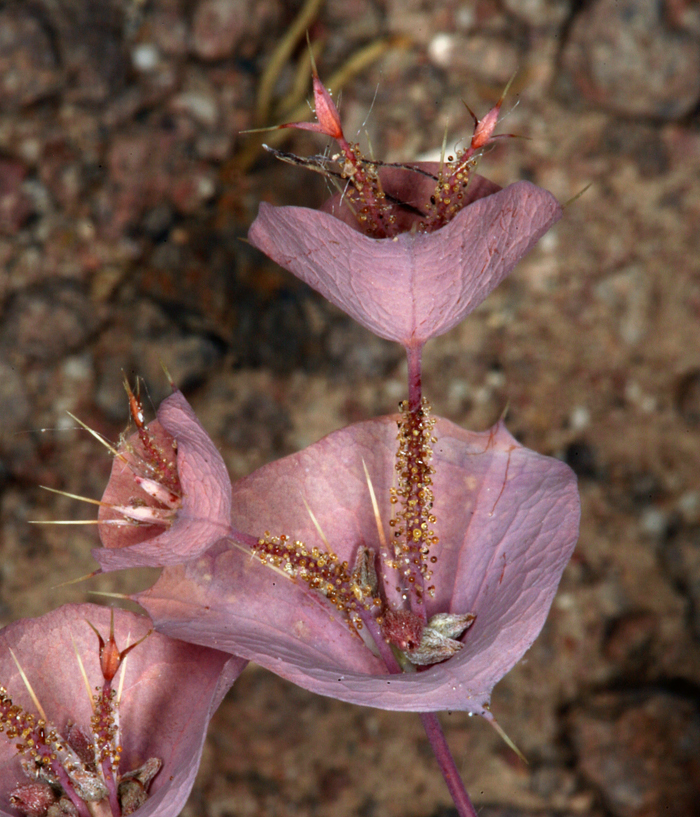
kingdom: Plantae
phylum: Tracheophyta
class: Magnoliopsida
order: Caryophyllales
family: Polygonaceae
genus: Oxytheca
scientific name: Oxytheca perfoliata
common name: Round-leaf puncturebract
